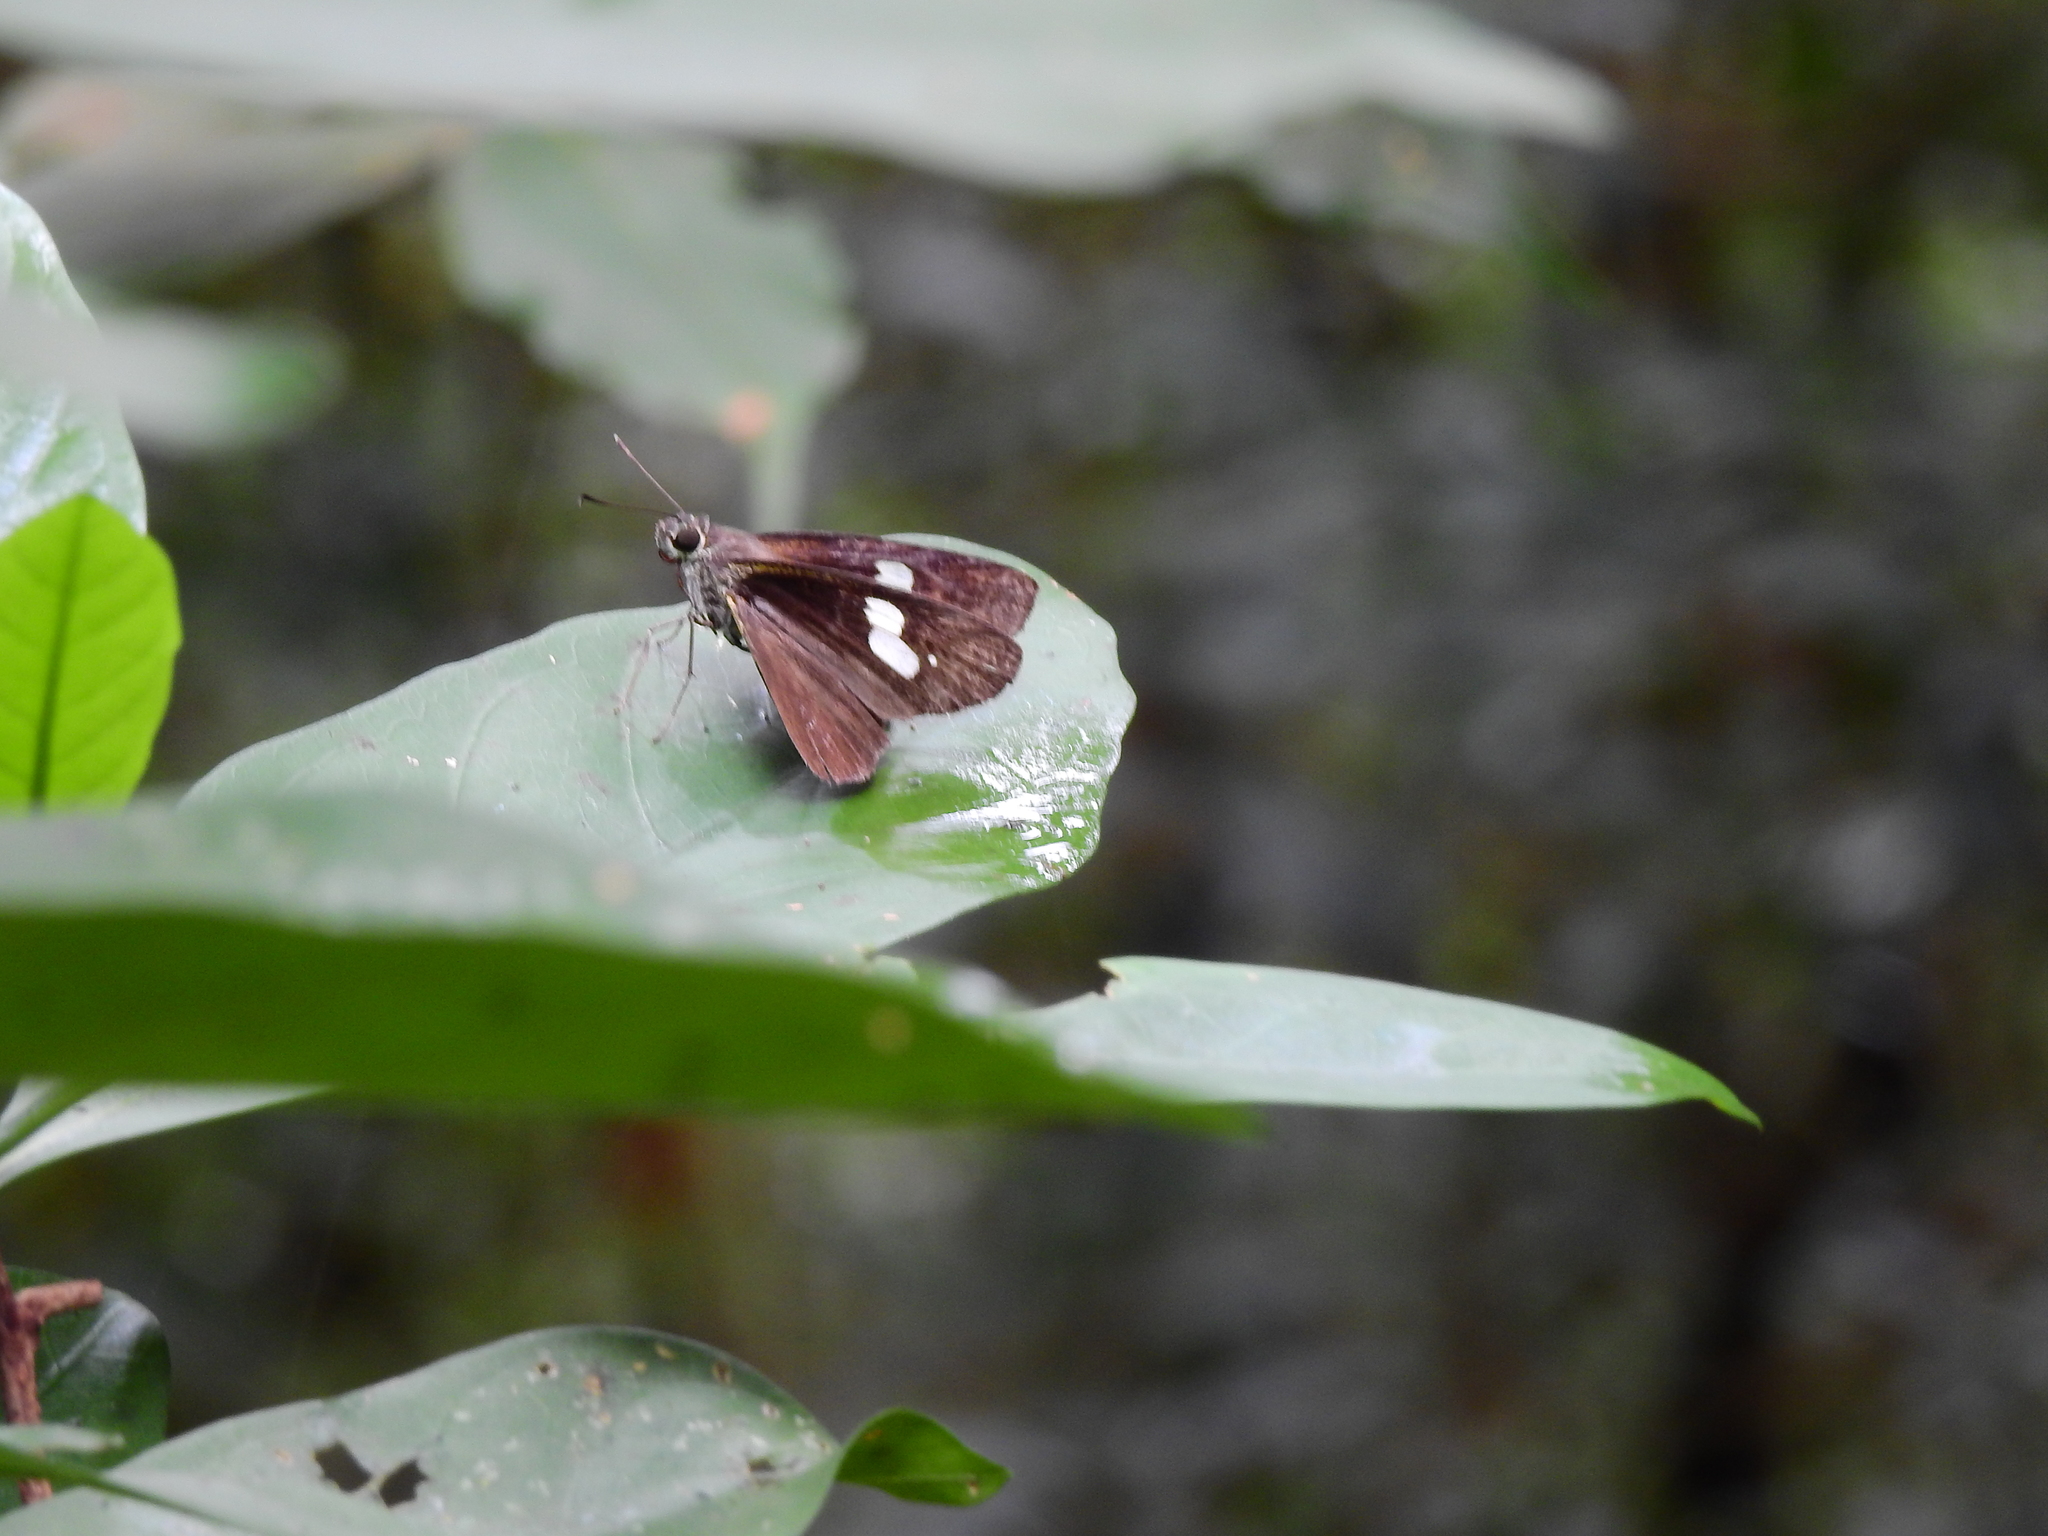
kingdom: Animalia
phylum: Arthropoda
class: Insecta
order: Lepidoptera
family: Hesperiidae
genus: Quedara
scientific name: Quedara basiflava
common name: Golden flitter
